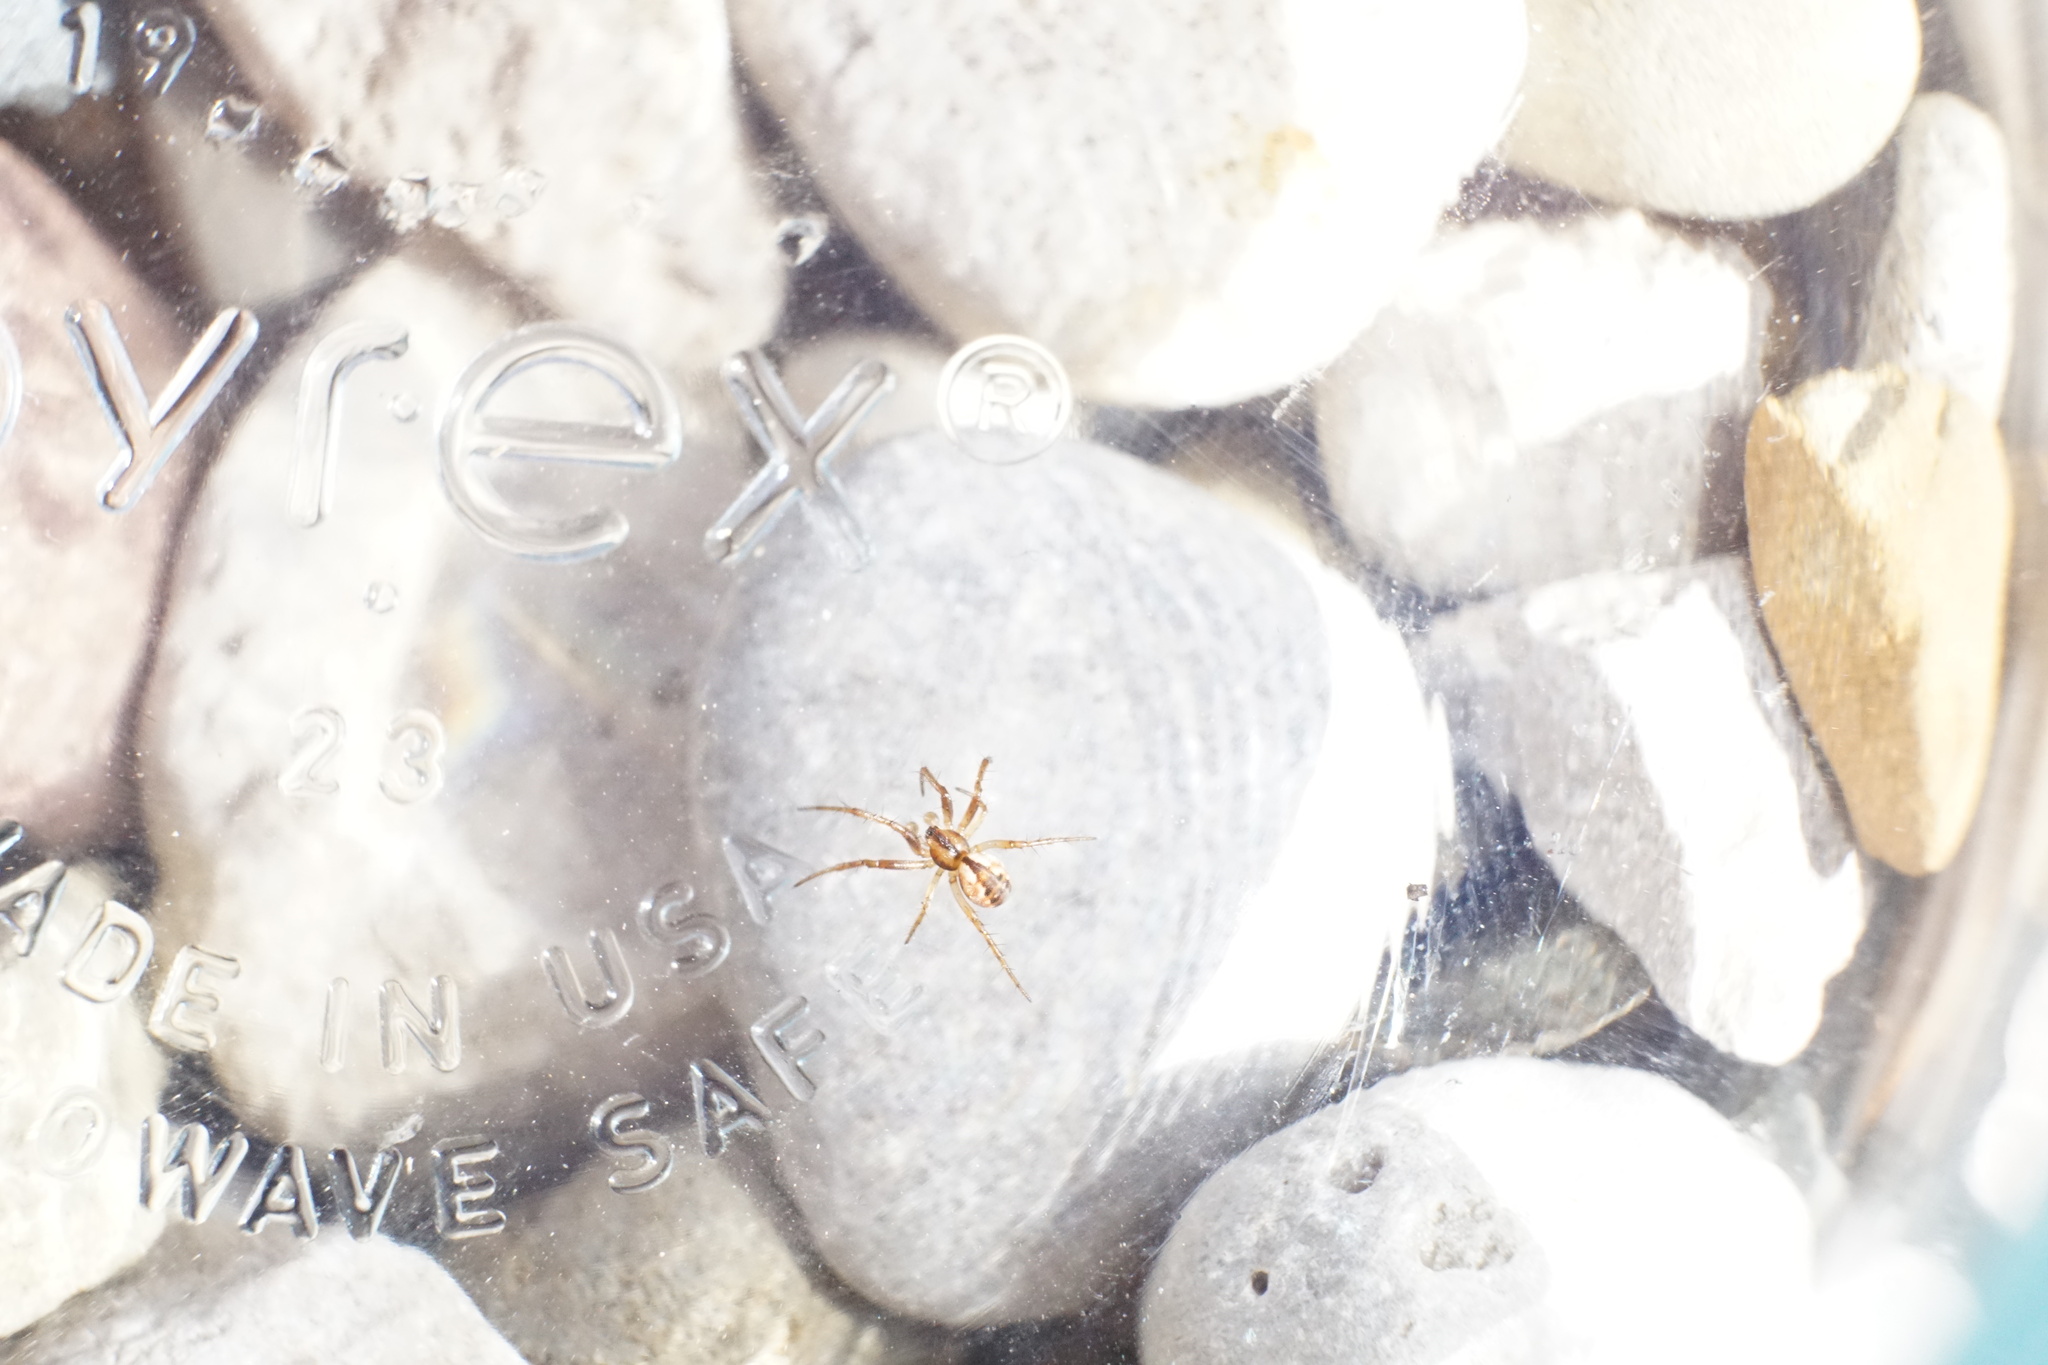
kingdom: Animalia
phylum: Arthropoda
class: Arachnida
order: Araneae
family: Araneidae
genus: Mangora
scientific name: Mangora placida
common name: Tuft-legged orbweaver
